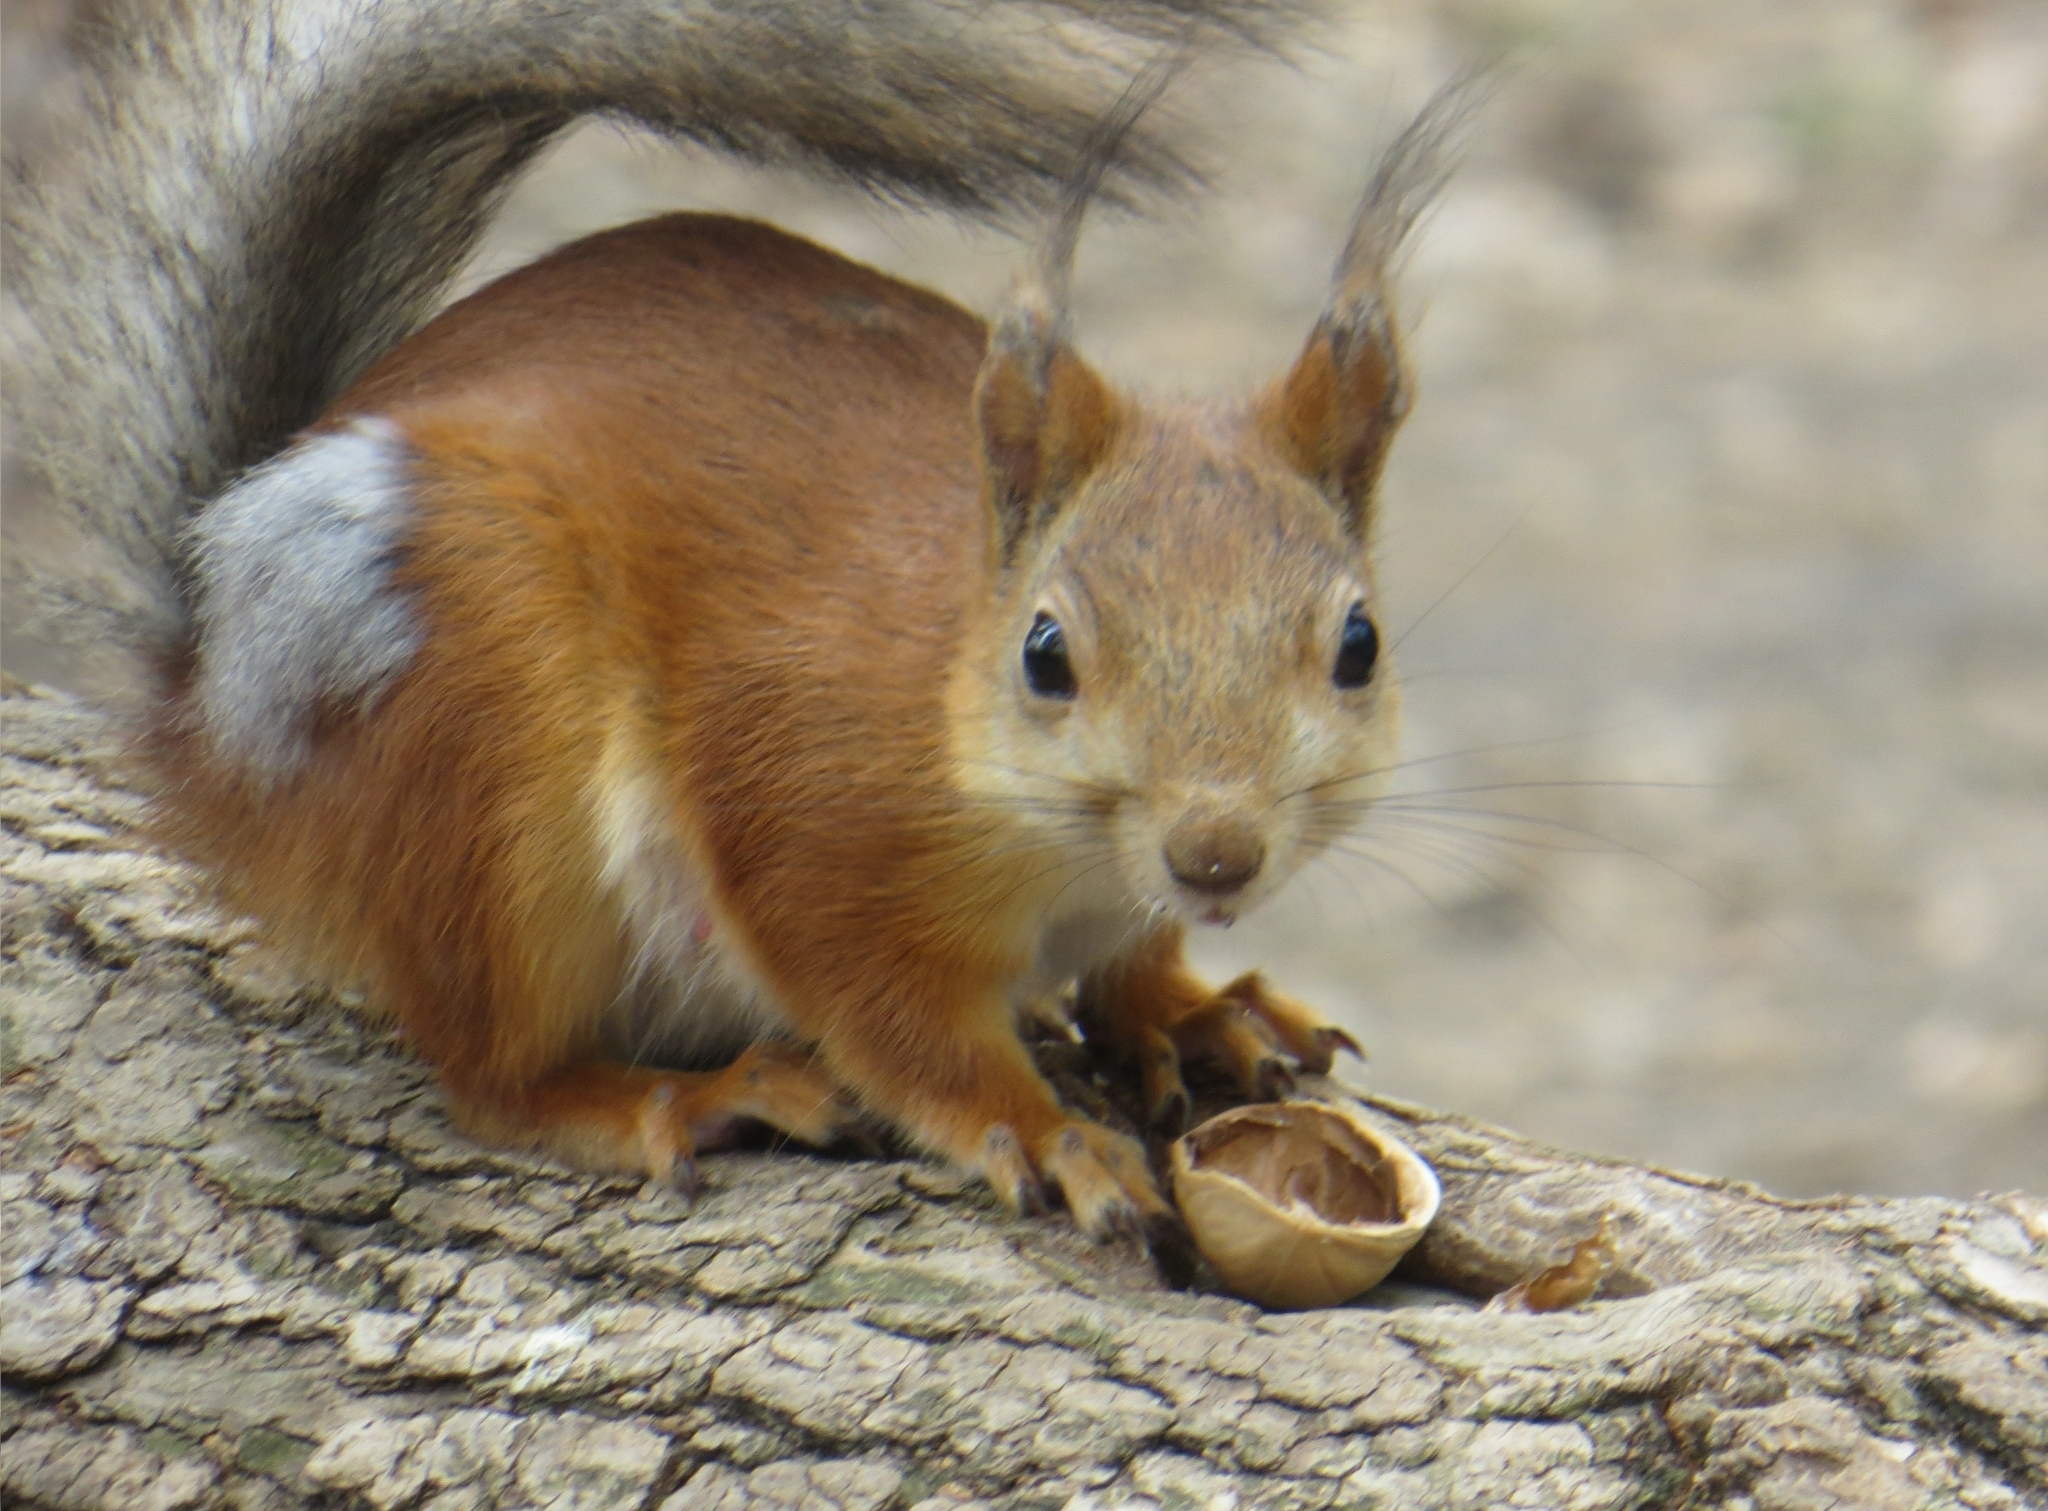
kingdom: Animalia
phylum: Chordata
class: Mammalia
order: Rodentia
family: Sciuridae
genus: Sciurus
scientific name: Sciurus vulgaris
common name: Eurasian red squirrel
